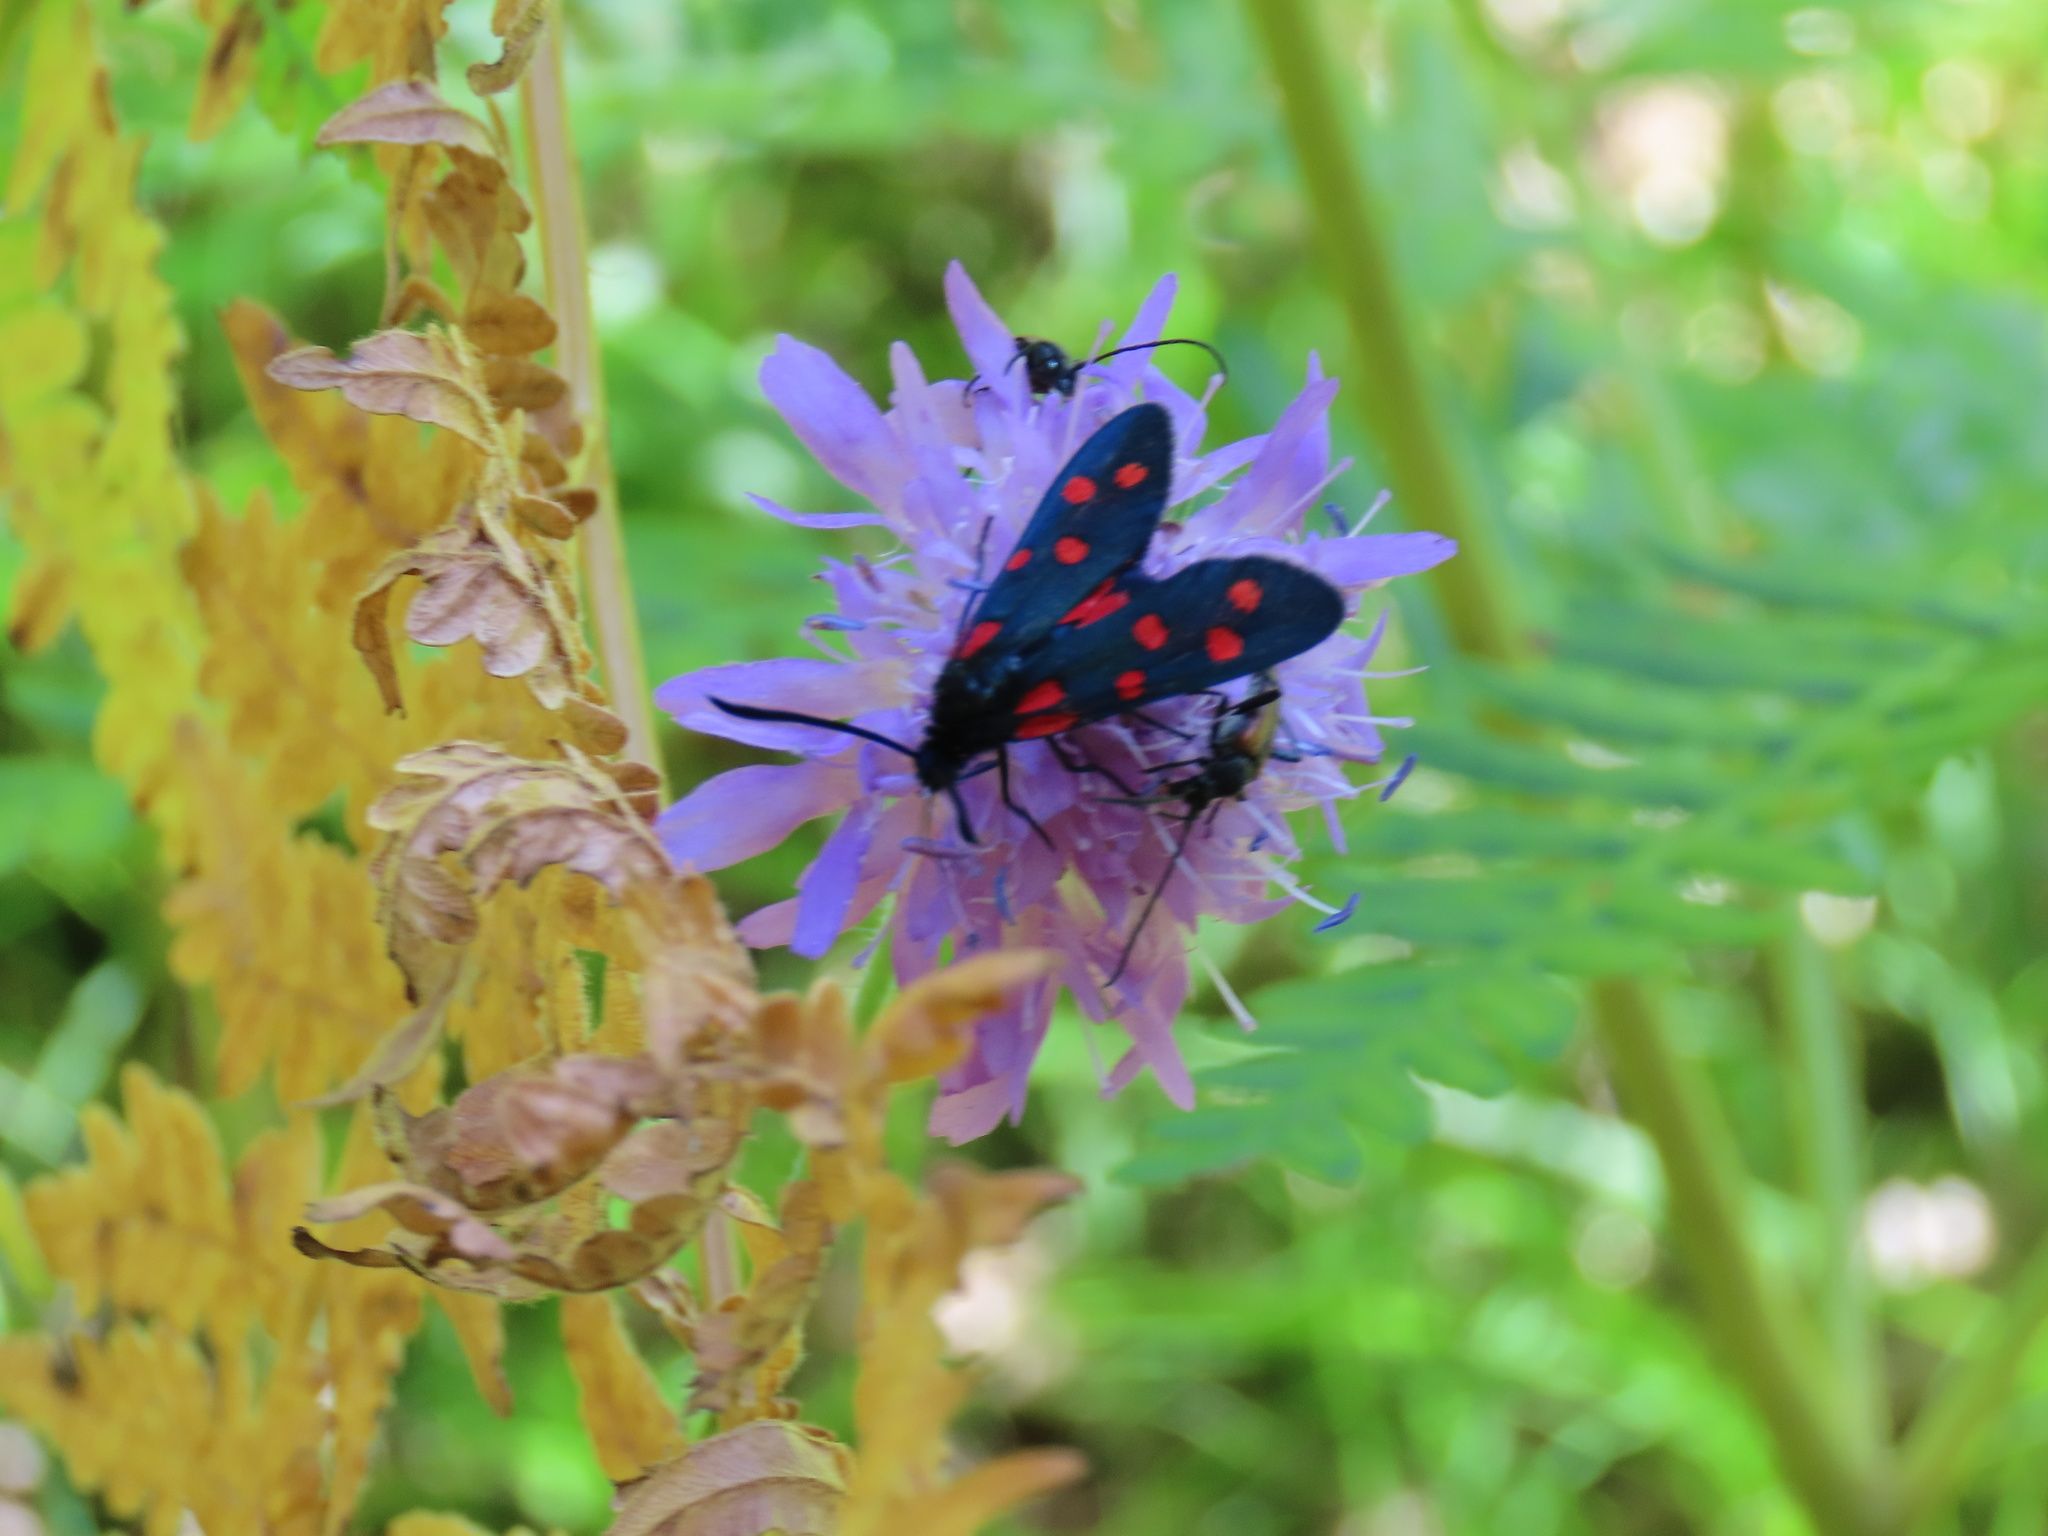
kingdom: Animalia
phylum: Arthropoda
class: Insecta
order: Lepidoptera
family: Zygaenidae
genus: Zygaena
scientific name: Zygaena transalpina
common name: Southern six spot burnet
